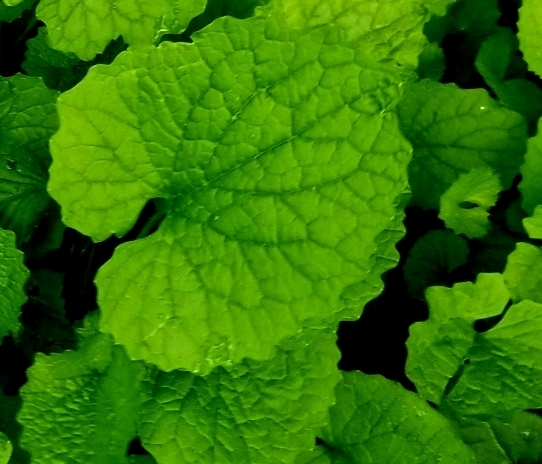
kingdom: Plantae
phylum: Tracheophyta
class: Magnoliopsida
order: Brassicales
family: Brassicaceae
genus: Alliaria
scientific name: Alliaria petiolata
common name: Garlic mustard
